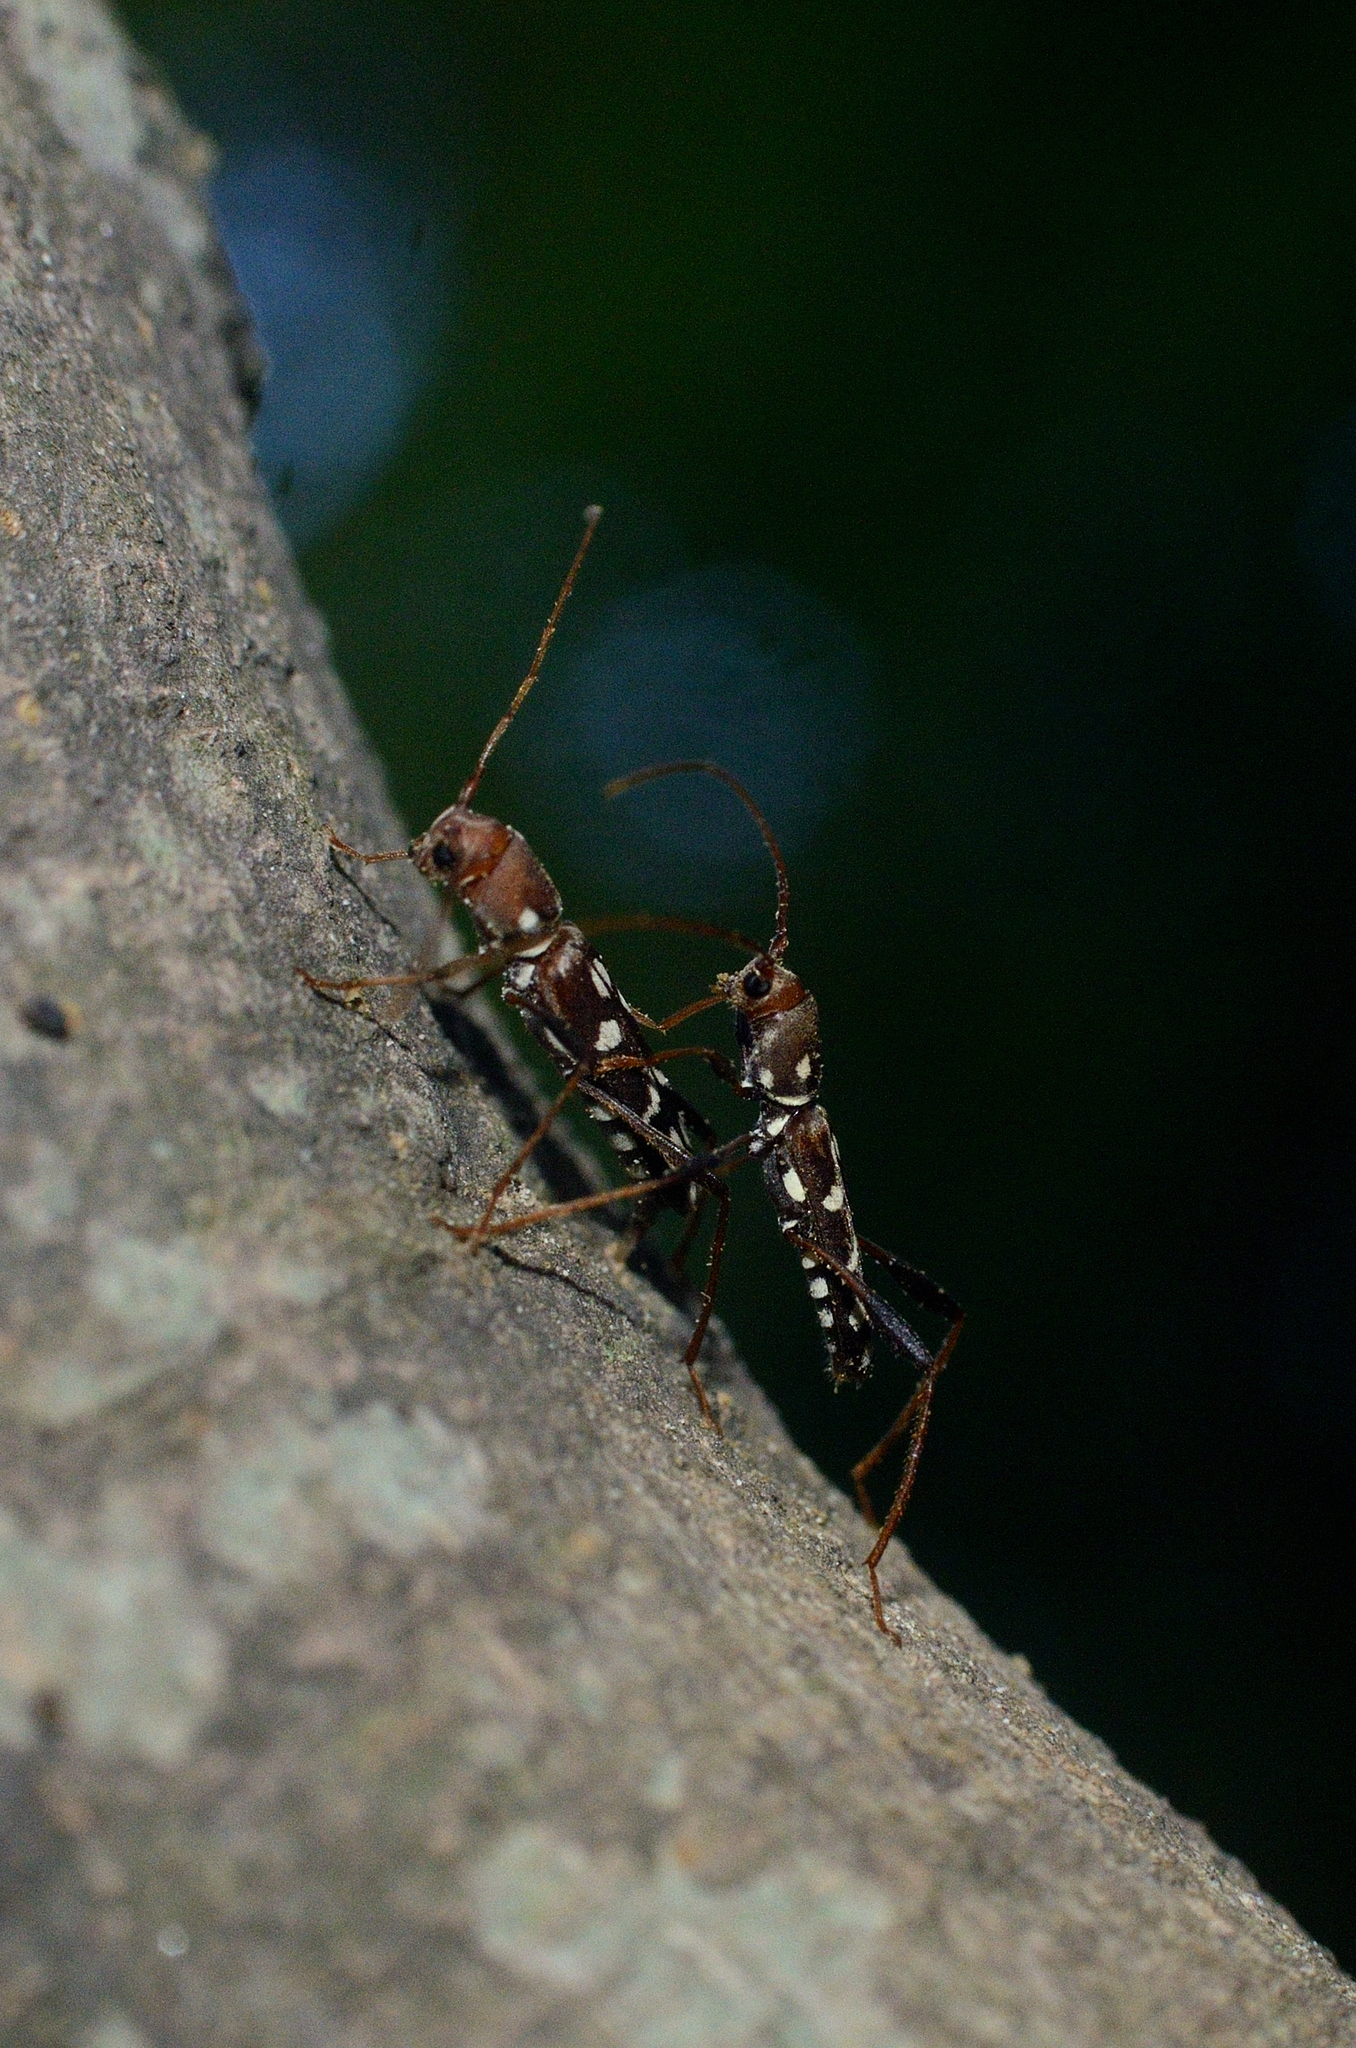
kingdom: Animalia
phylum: Arthropoda
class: Insecta
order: Coleoptera
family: Cerambycidae
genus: Clytocera
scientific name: Clytocera chionospila
